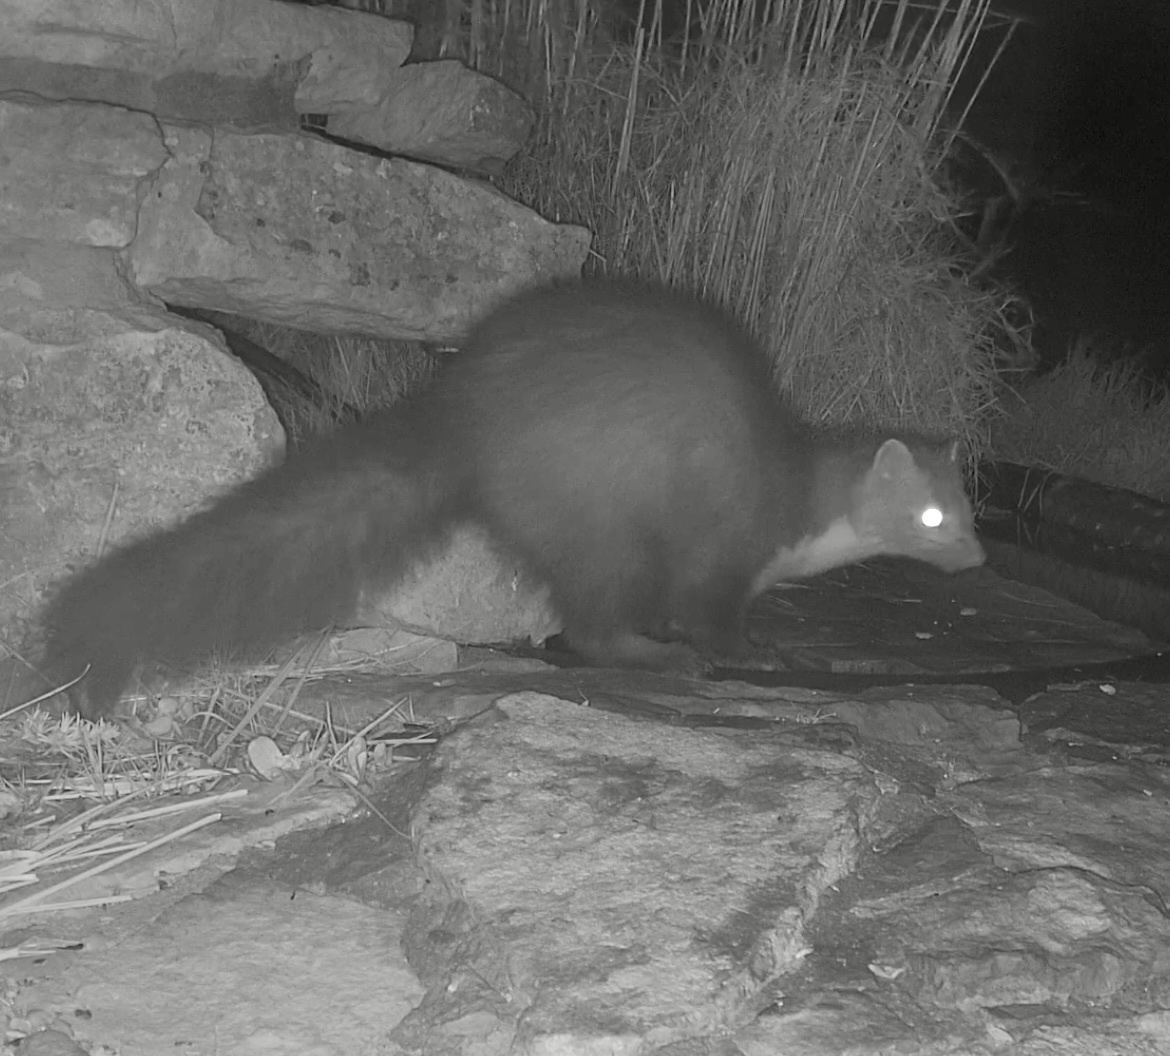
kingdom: Animalia
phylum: Chordata
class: Mammalia
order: Carnivora
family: Mustelidae
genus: Martes
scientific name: Martes foina
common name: Beech marten
